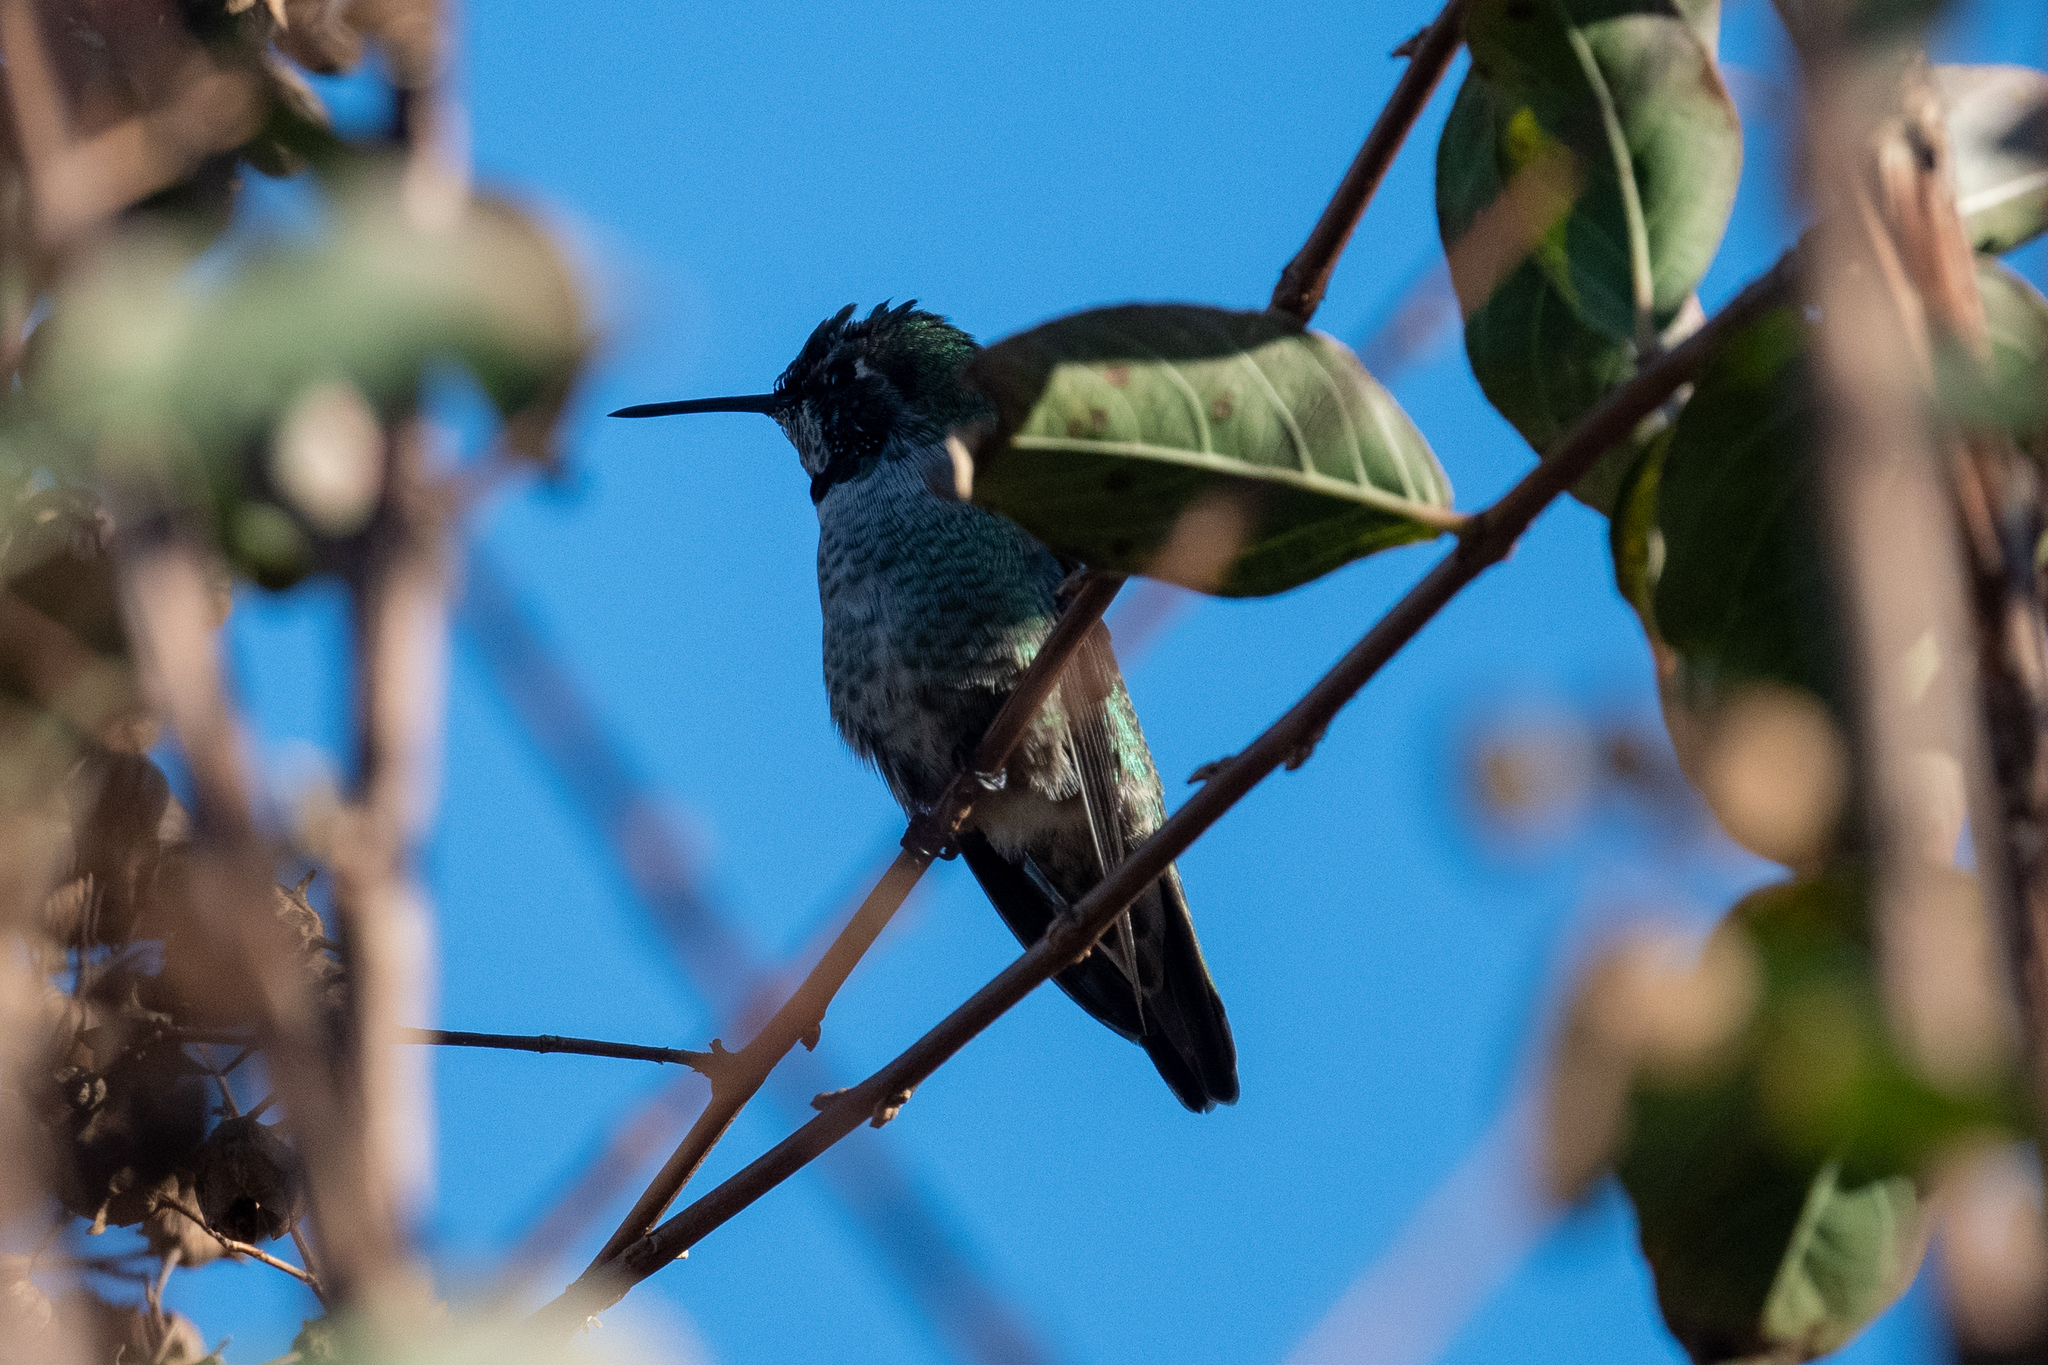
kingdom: Animalia
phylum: Chordata
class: Aves
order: Apodiformes
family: Trochilidae
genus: Calypte
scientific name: Calypte anna
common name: Anna's hummingbird
